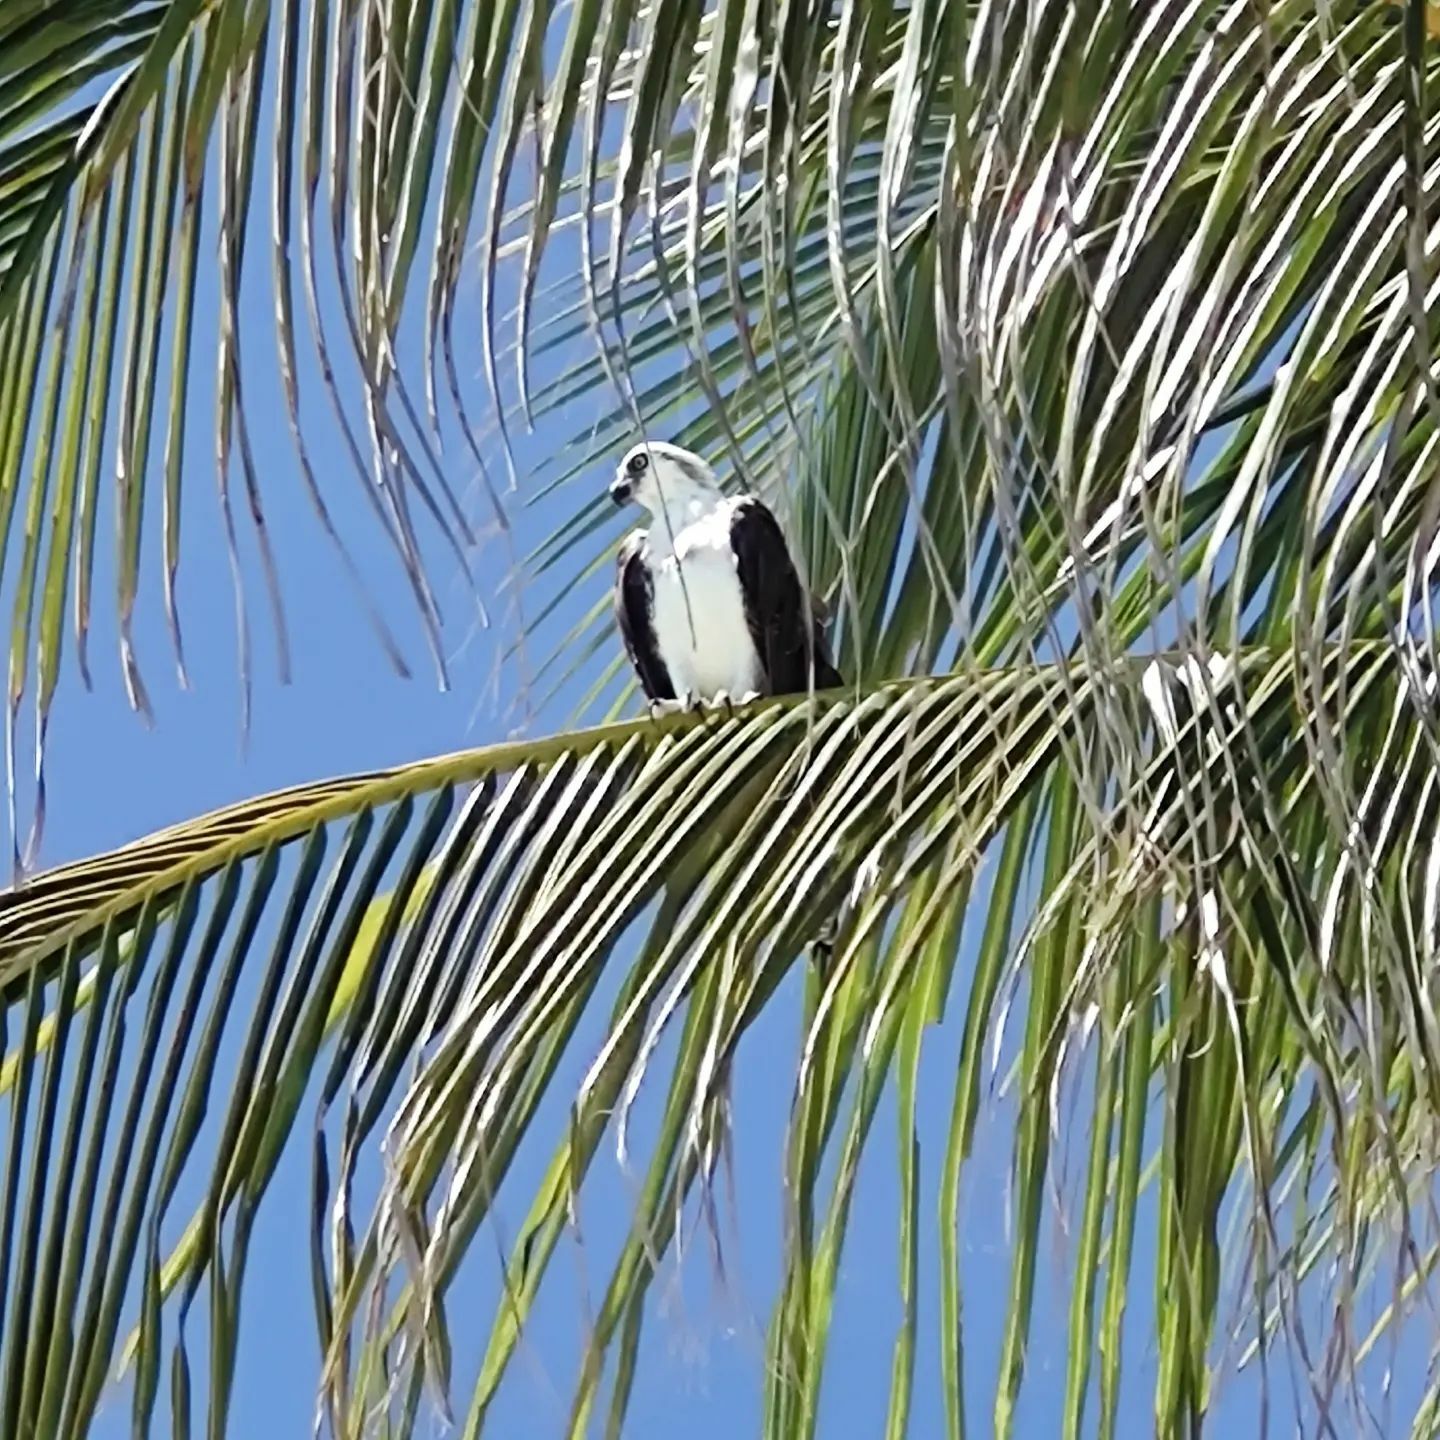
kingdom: Animalia
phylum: Chordata
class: Aves
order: Accipitriformes
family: Pandionidae
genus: Pandion
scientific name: Pandion haliaetus
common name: Osprey
